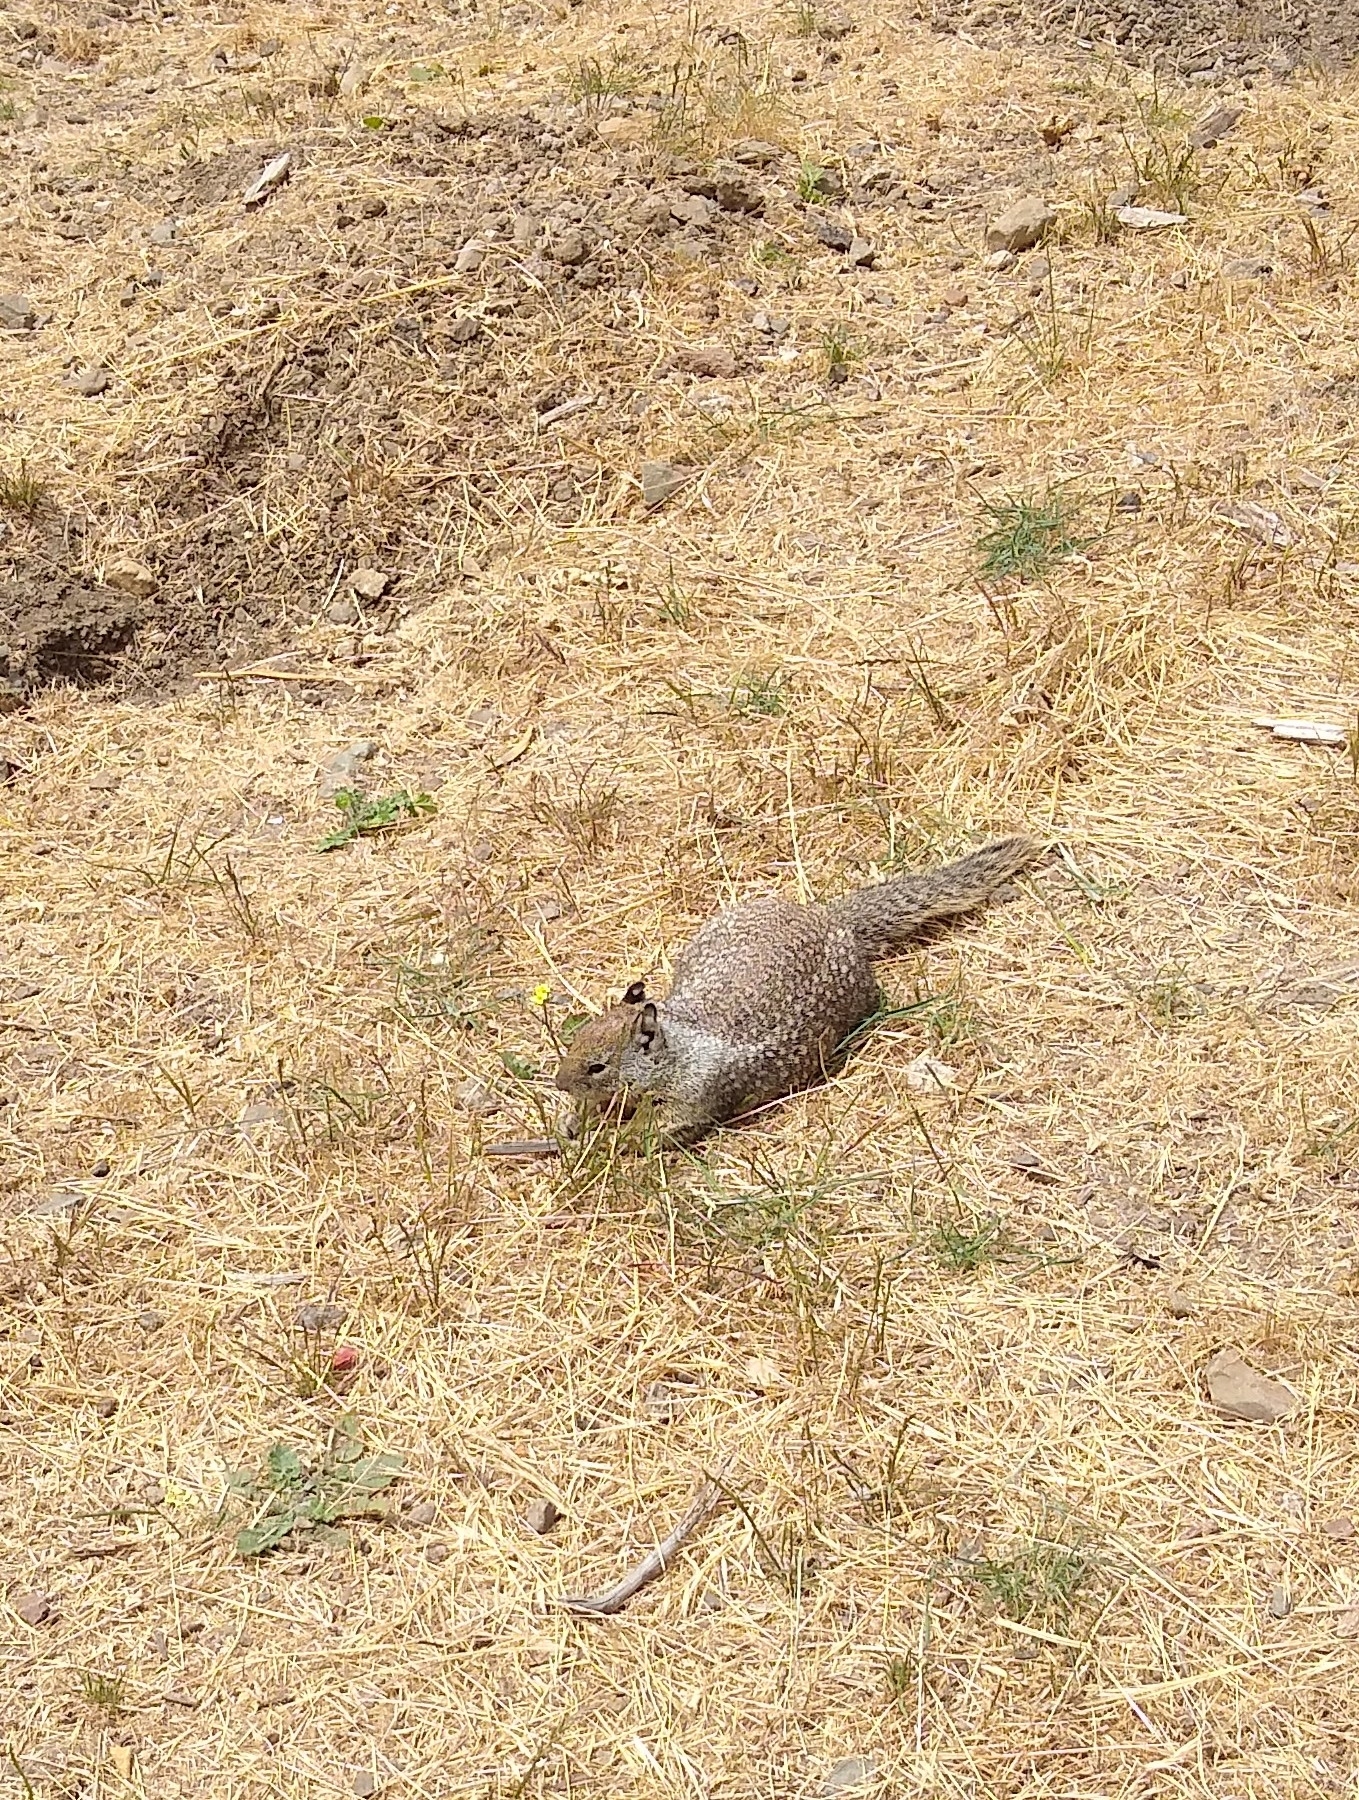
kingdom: Animalia
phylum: Chordata
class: Mammalia
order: Rodentia
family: Sciuridae
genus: Otospermophilus
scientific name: Otospermophilus beecheyi
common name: California ground squirrel
